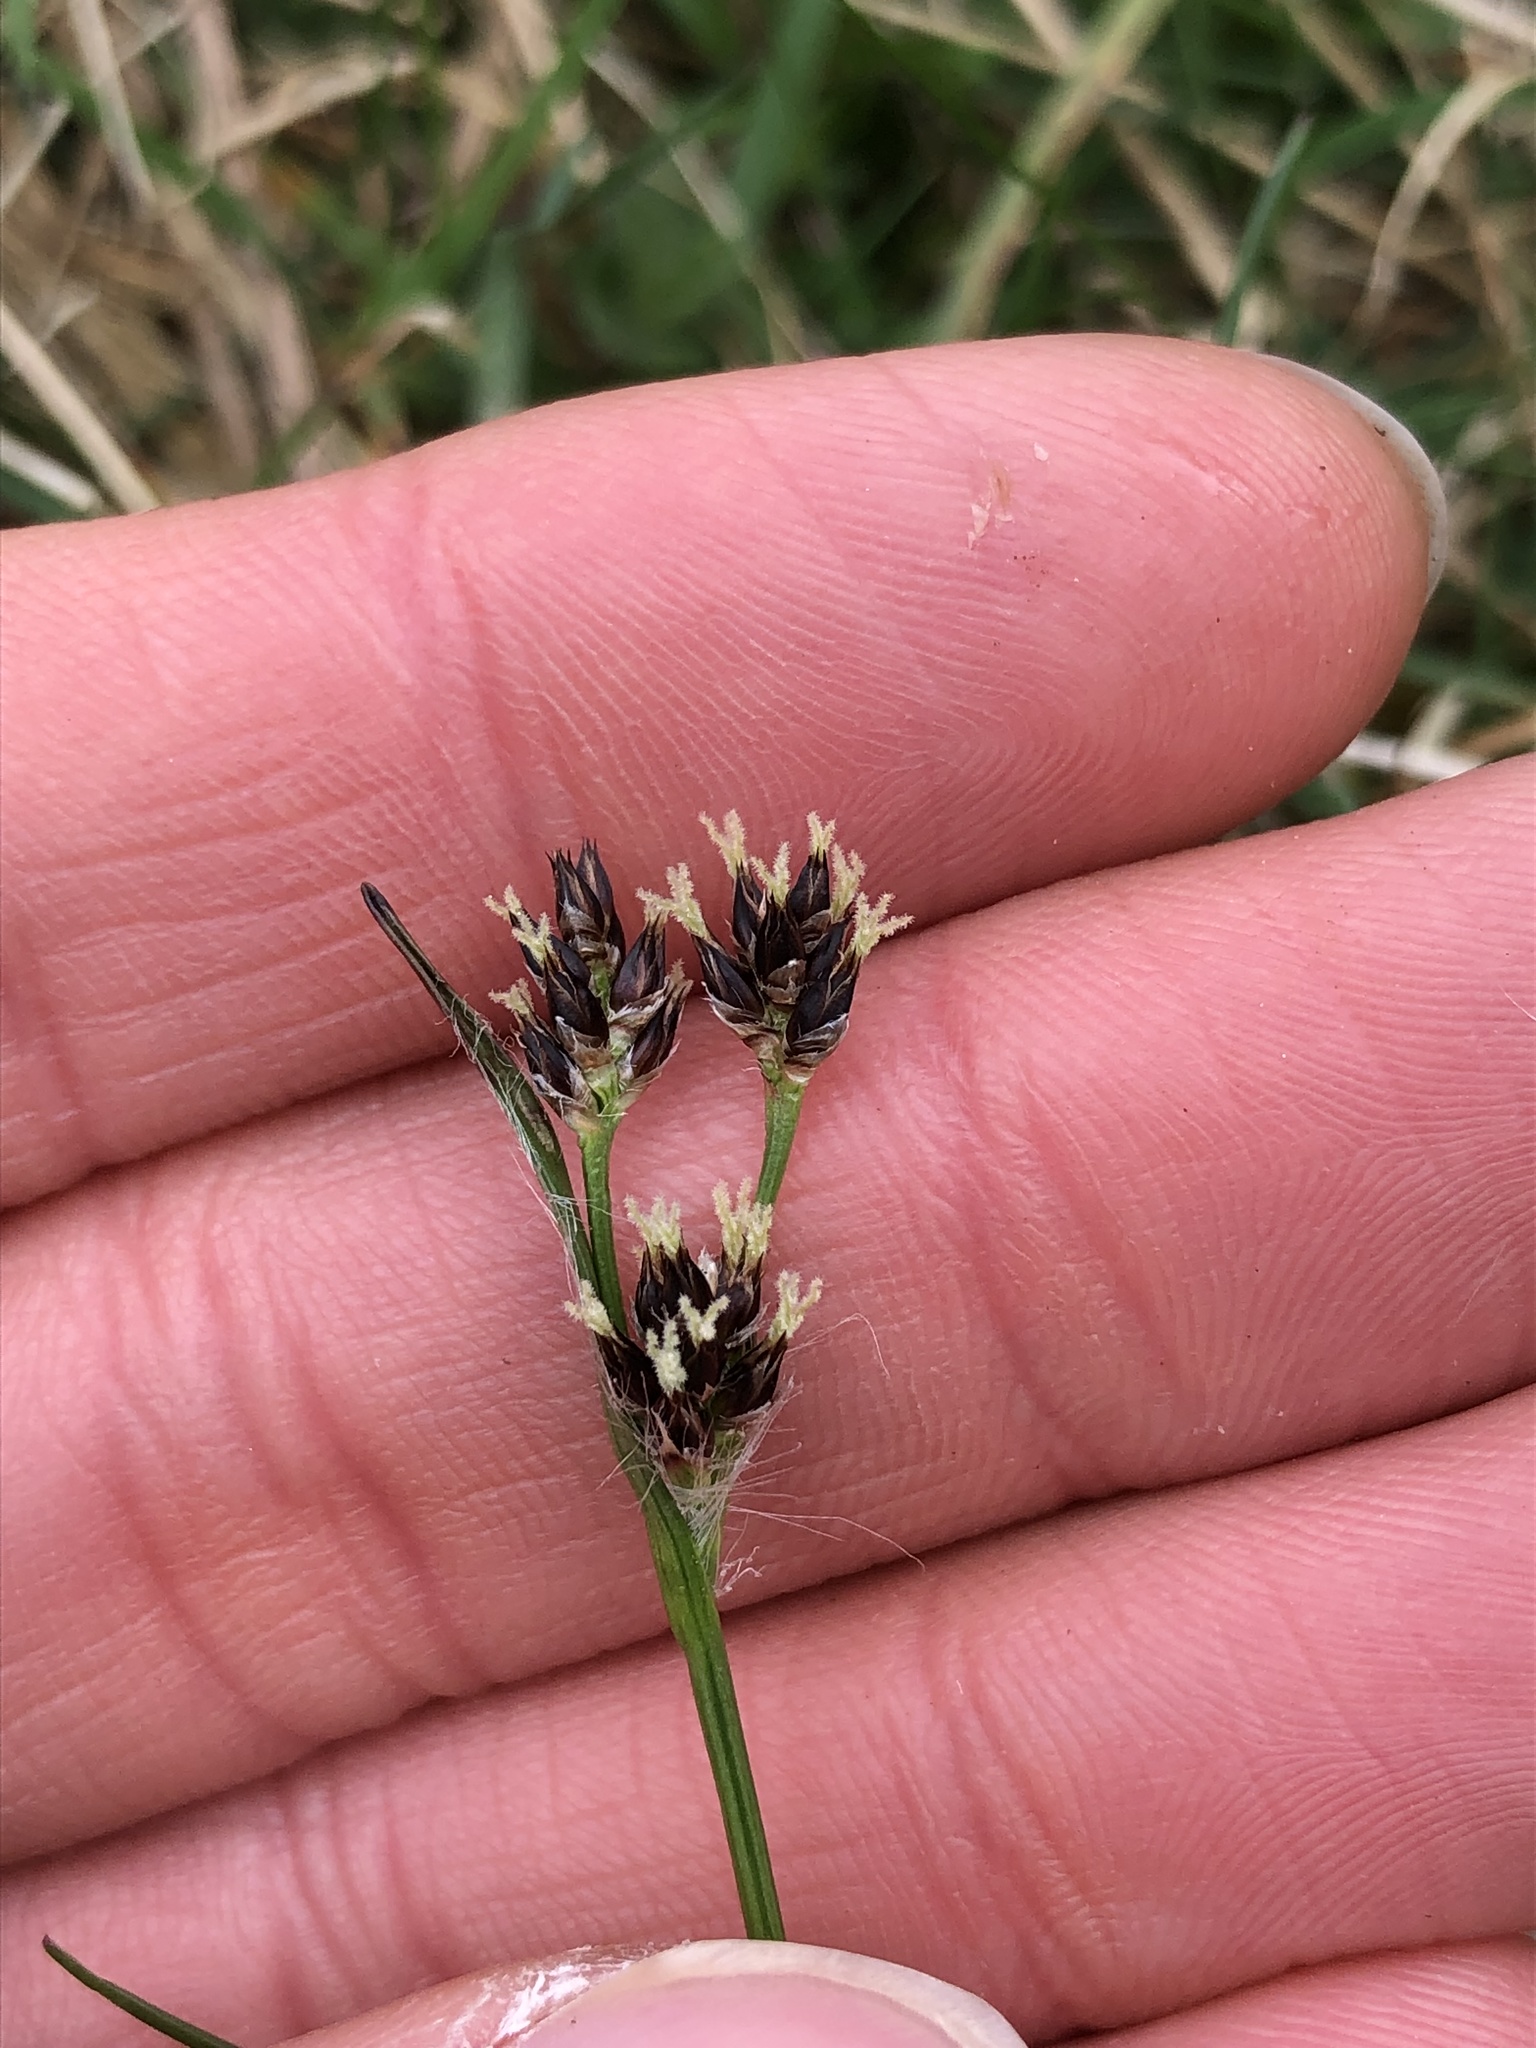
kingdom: Plantae
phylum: Tracheophyta
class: Liliopsida
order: Poales
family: Juncaceae
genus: Luzula
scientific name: Luzula campestris
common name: Field wood-rush
